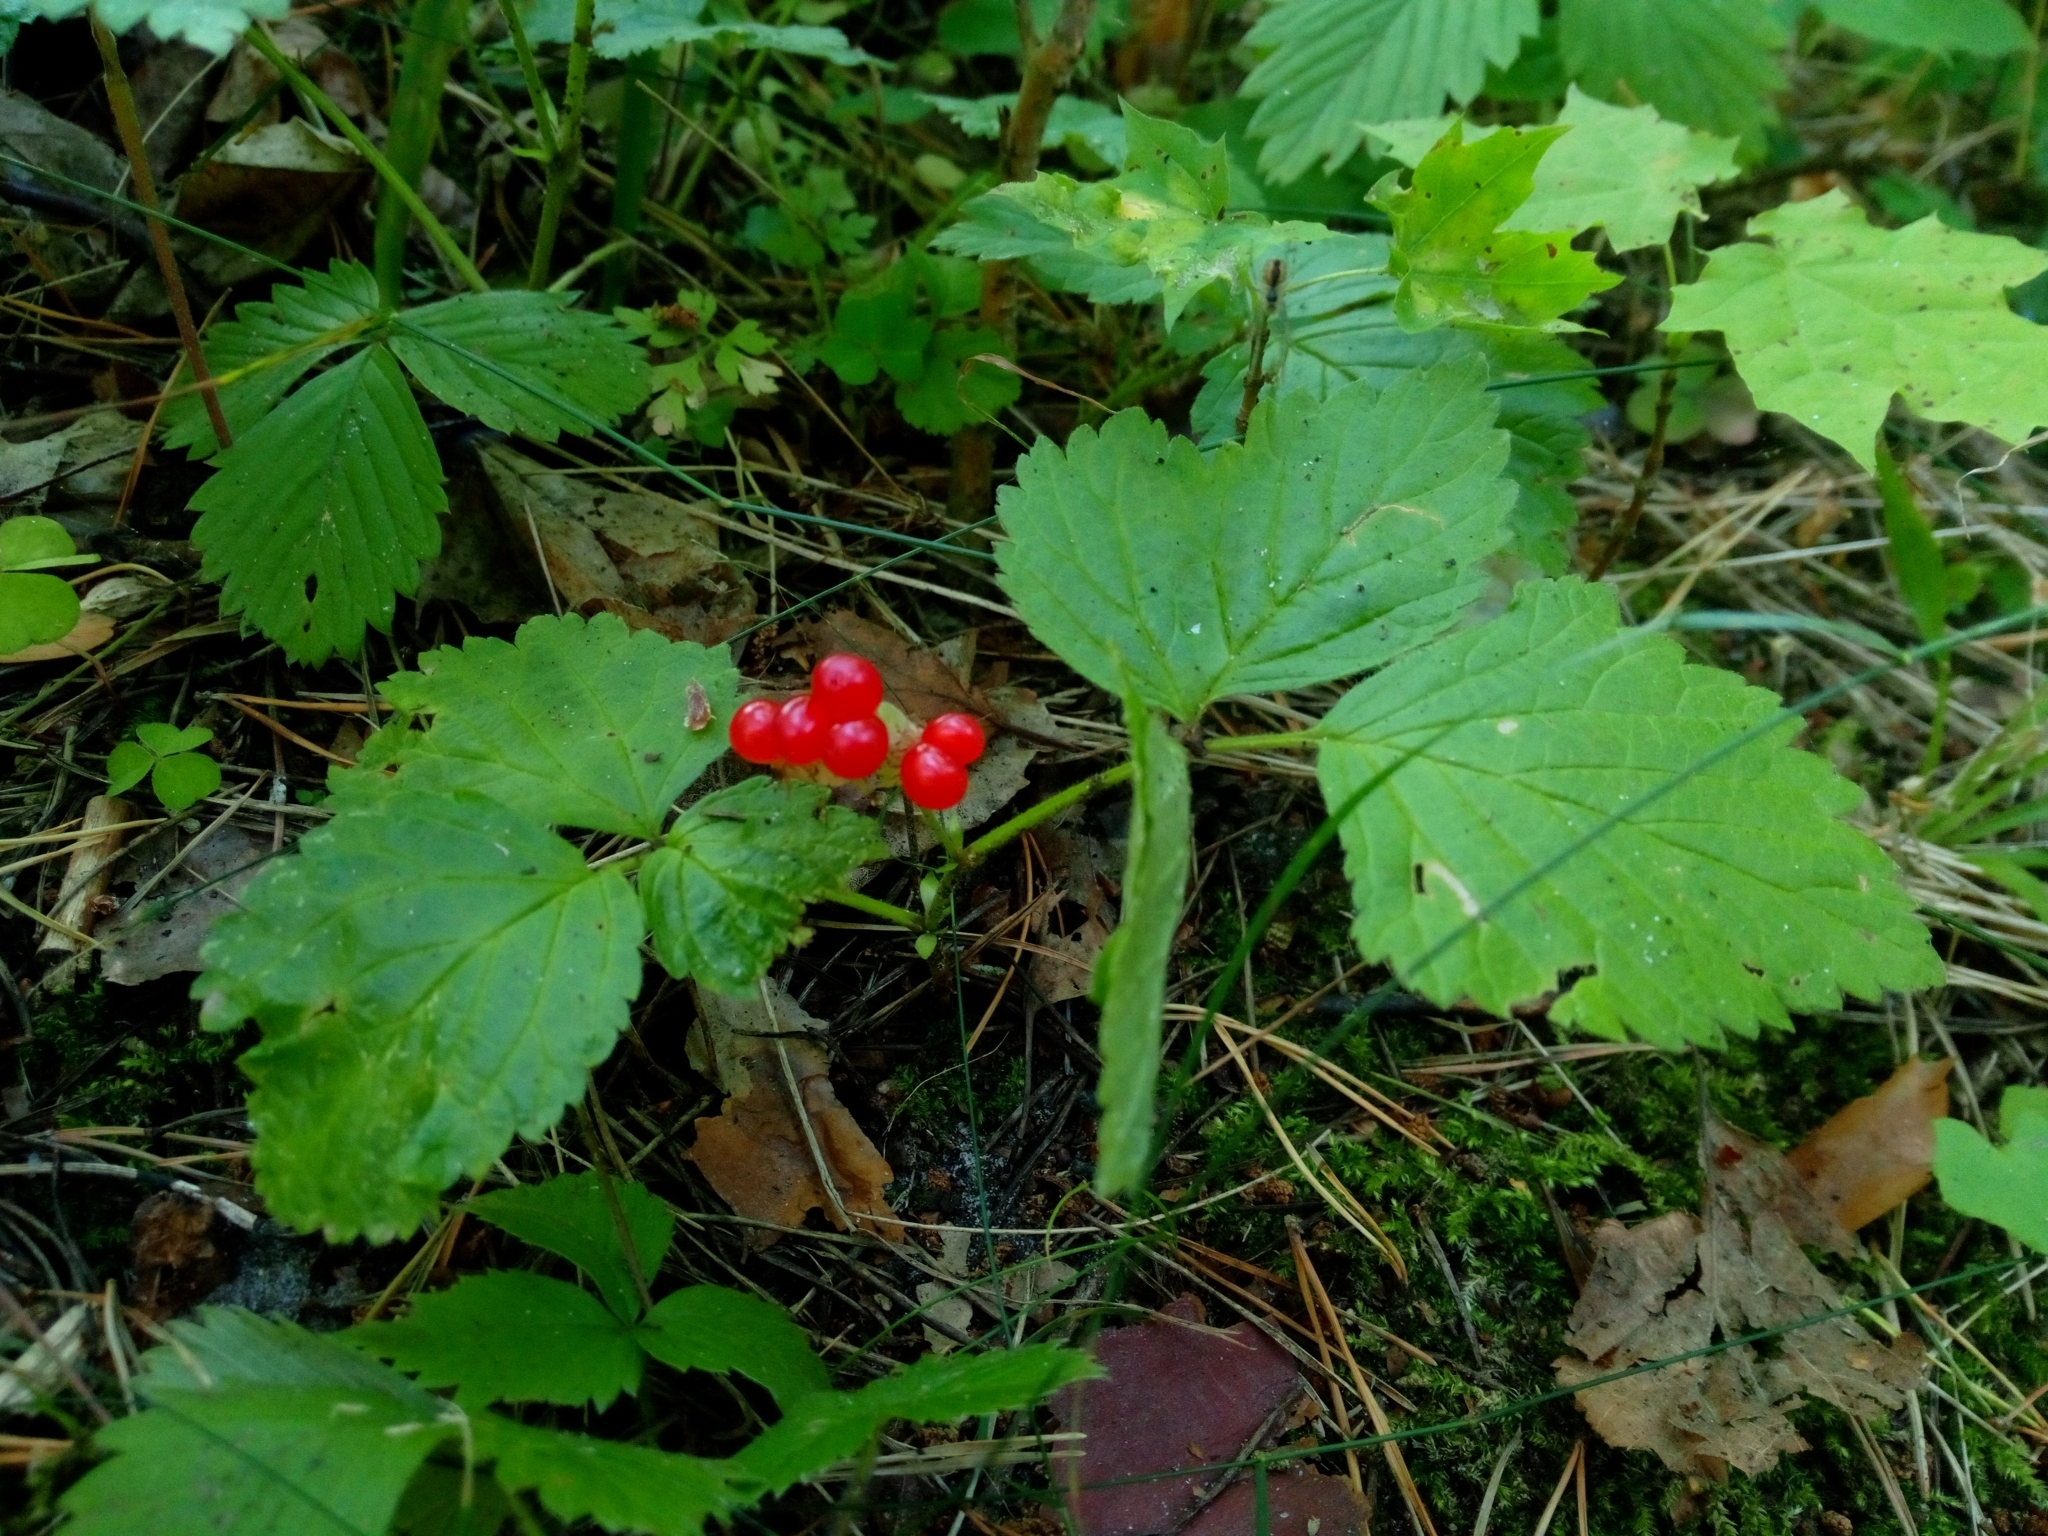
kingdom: Plantae
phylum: Tracheophyta
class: Magnoliopsida
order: Rosales
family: Rosaceae
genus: Rubus
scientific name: Rubus saxatilis
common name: Stone bramble
